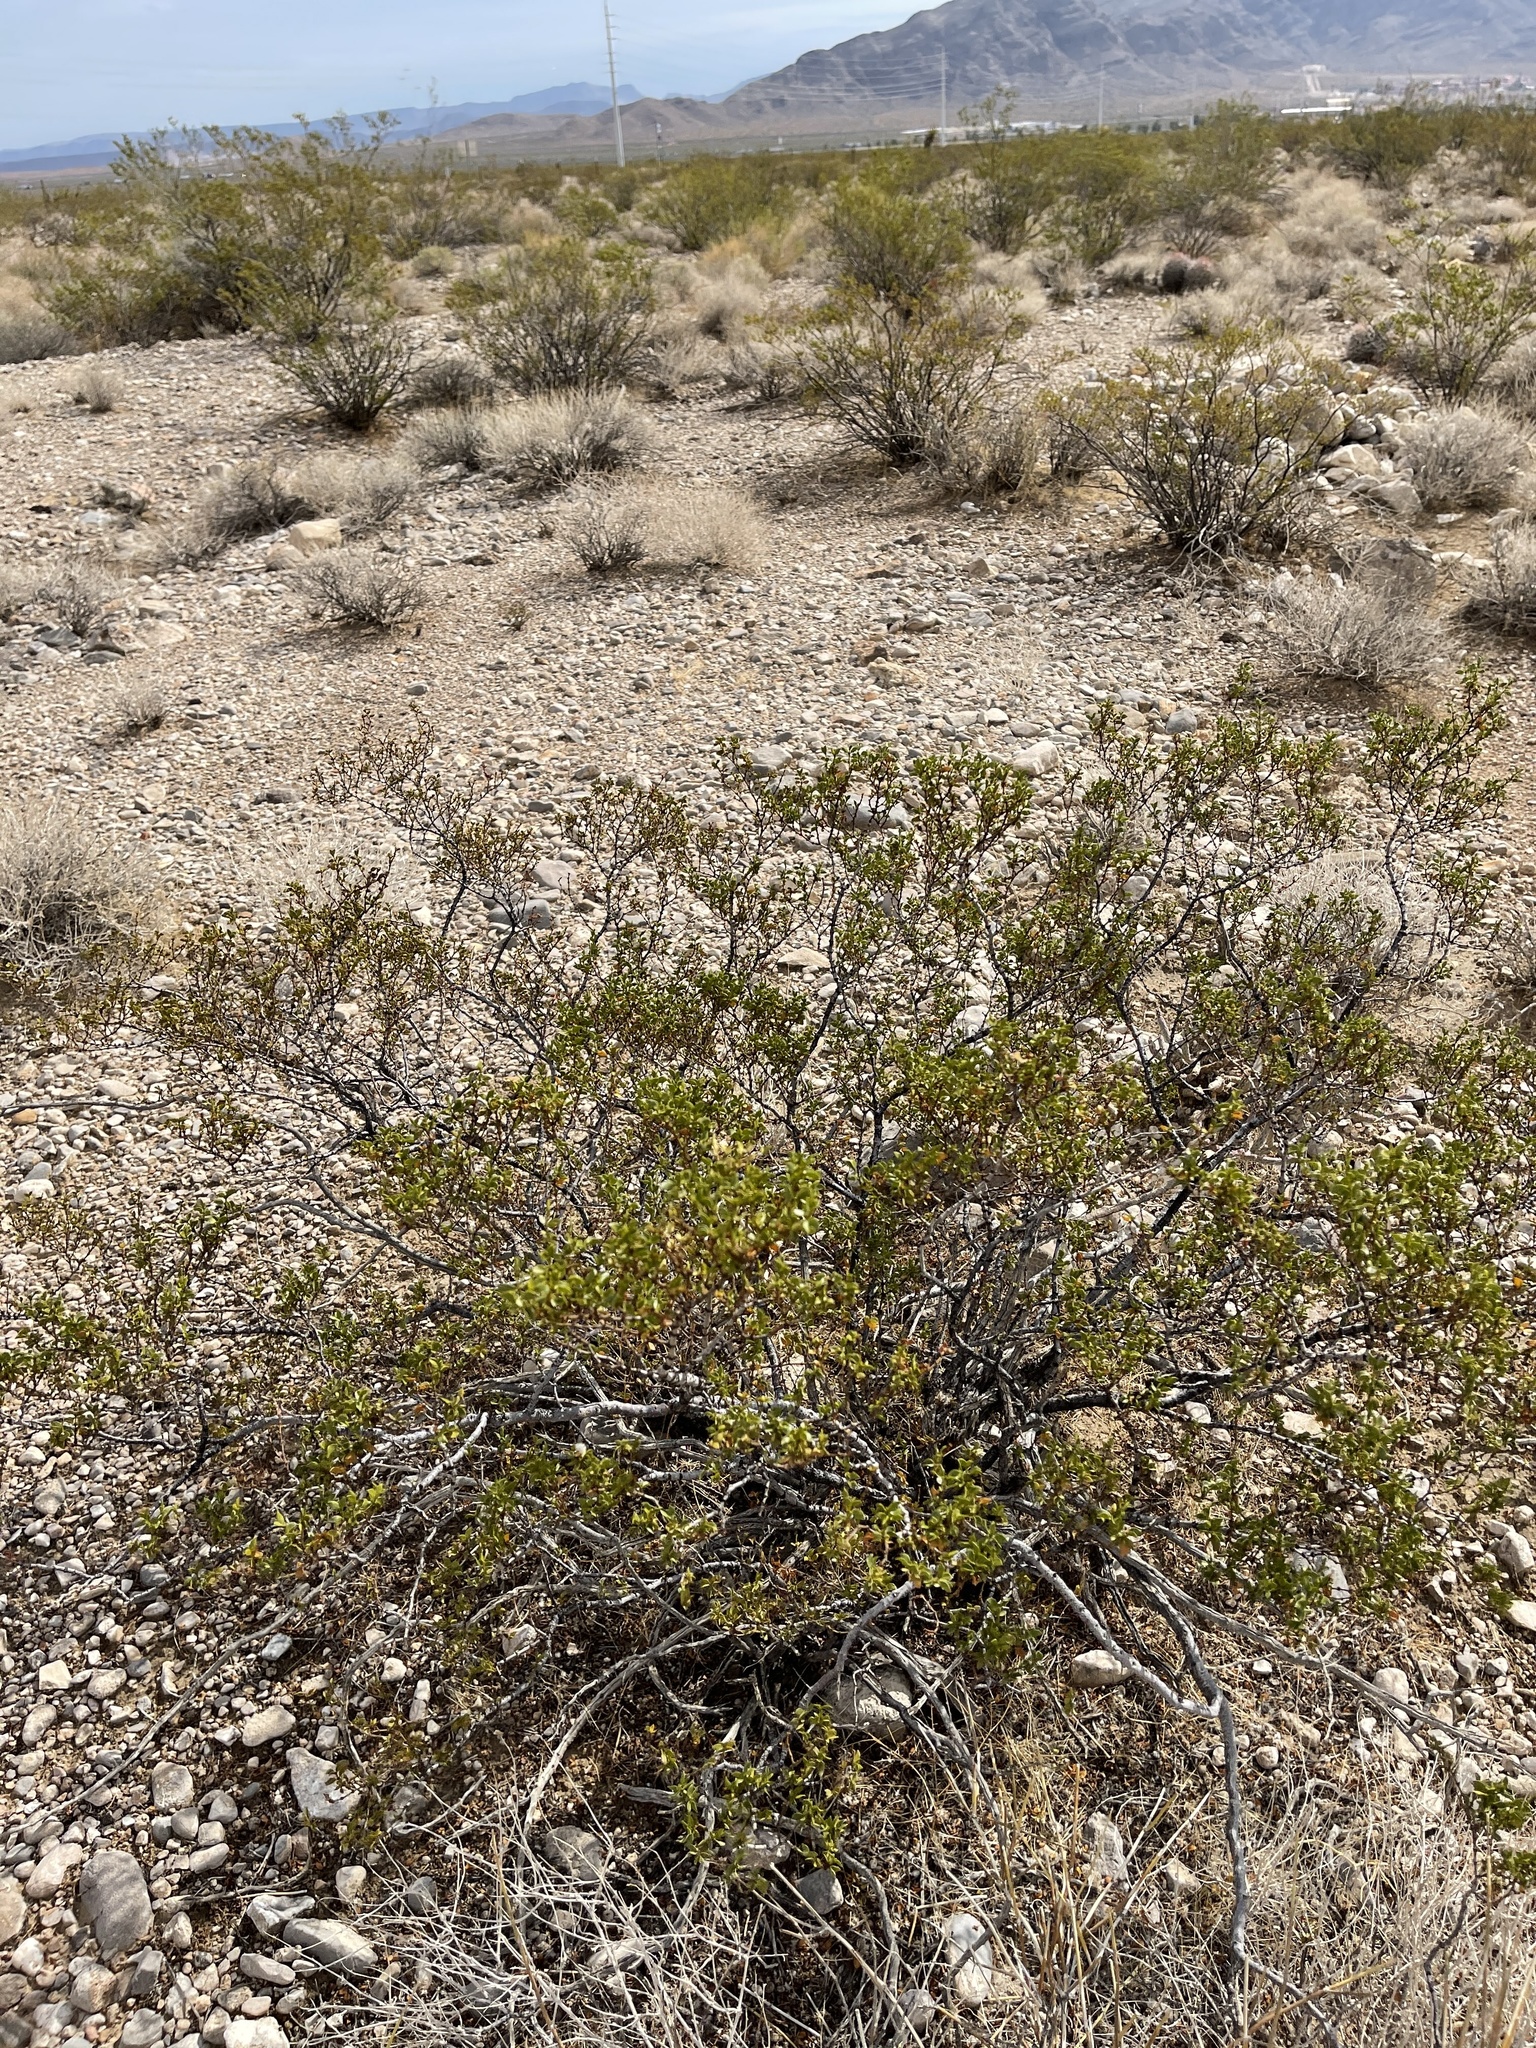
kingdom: Plantae
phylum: Tracheophyta
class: Magnoliopsida
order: Zygophyllales
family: Zygophyllaceae
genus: Larrea
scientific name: Larrea tridentata
